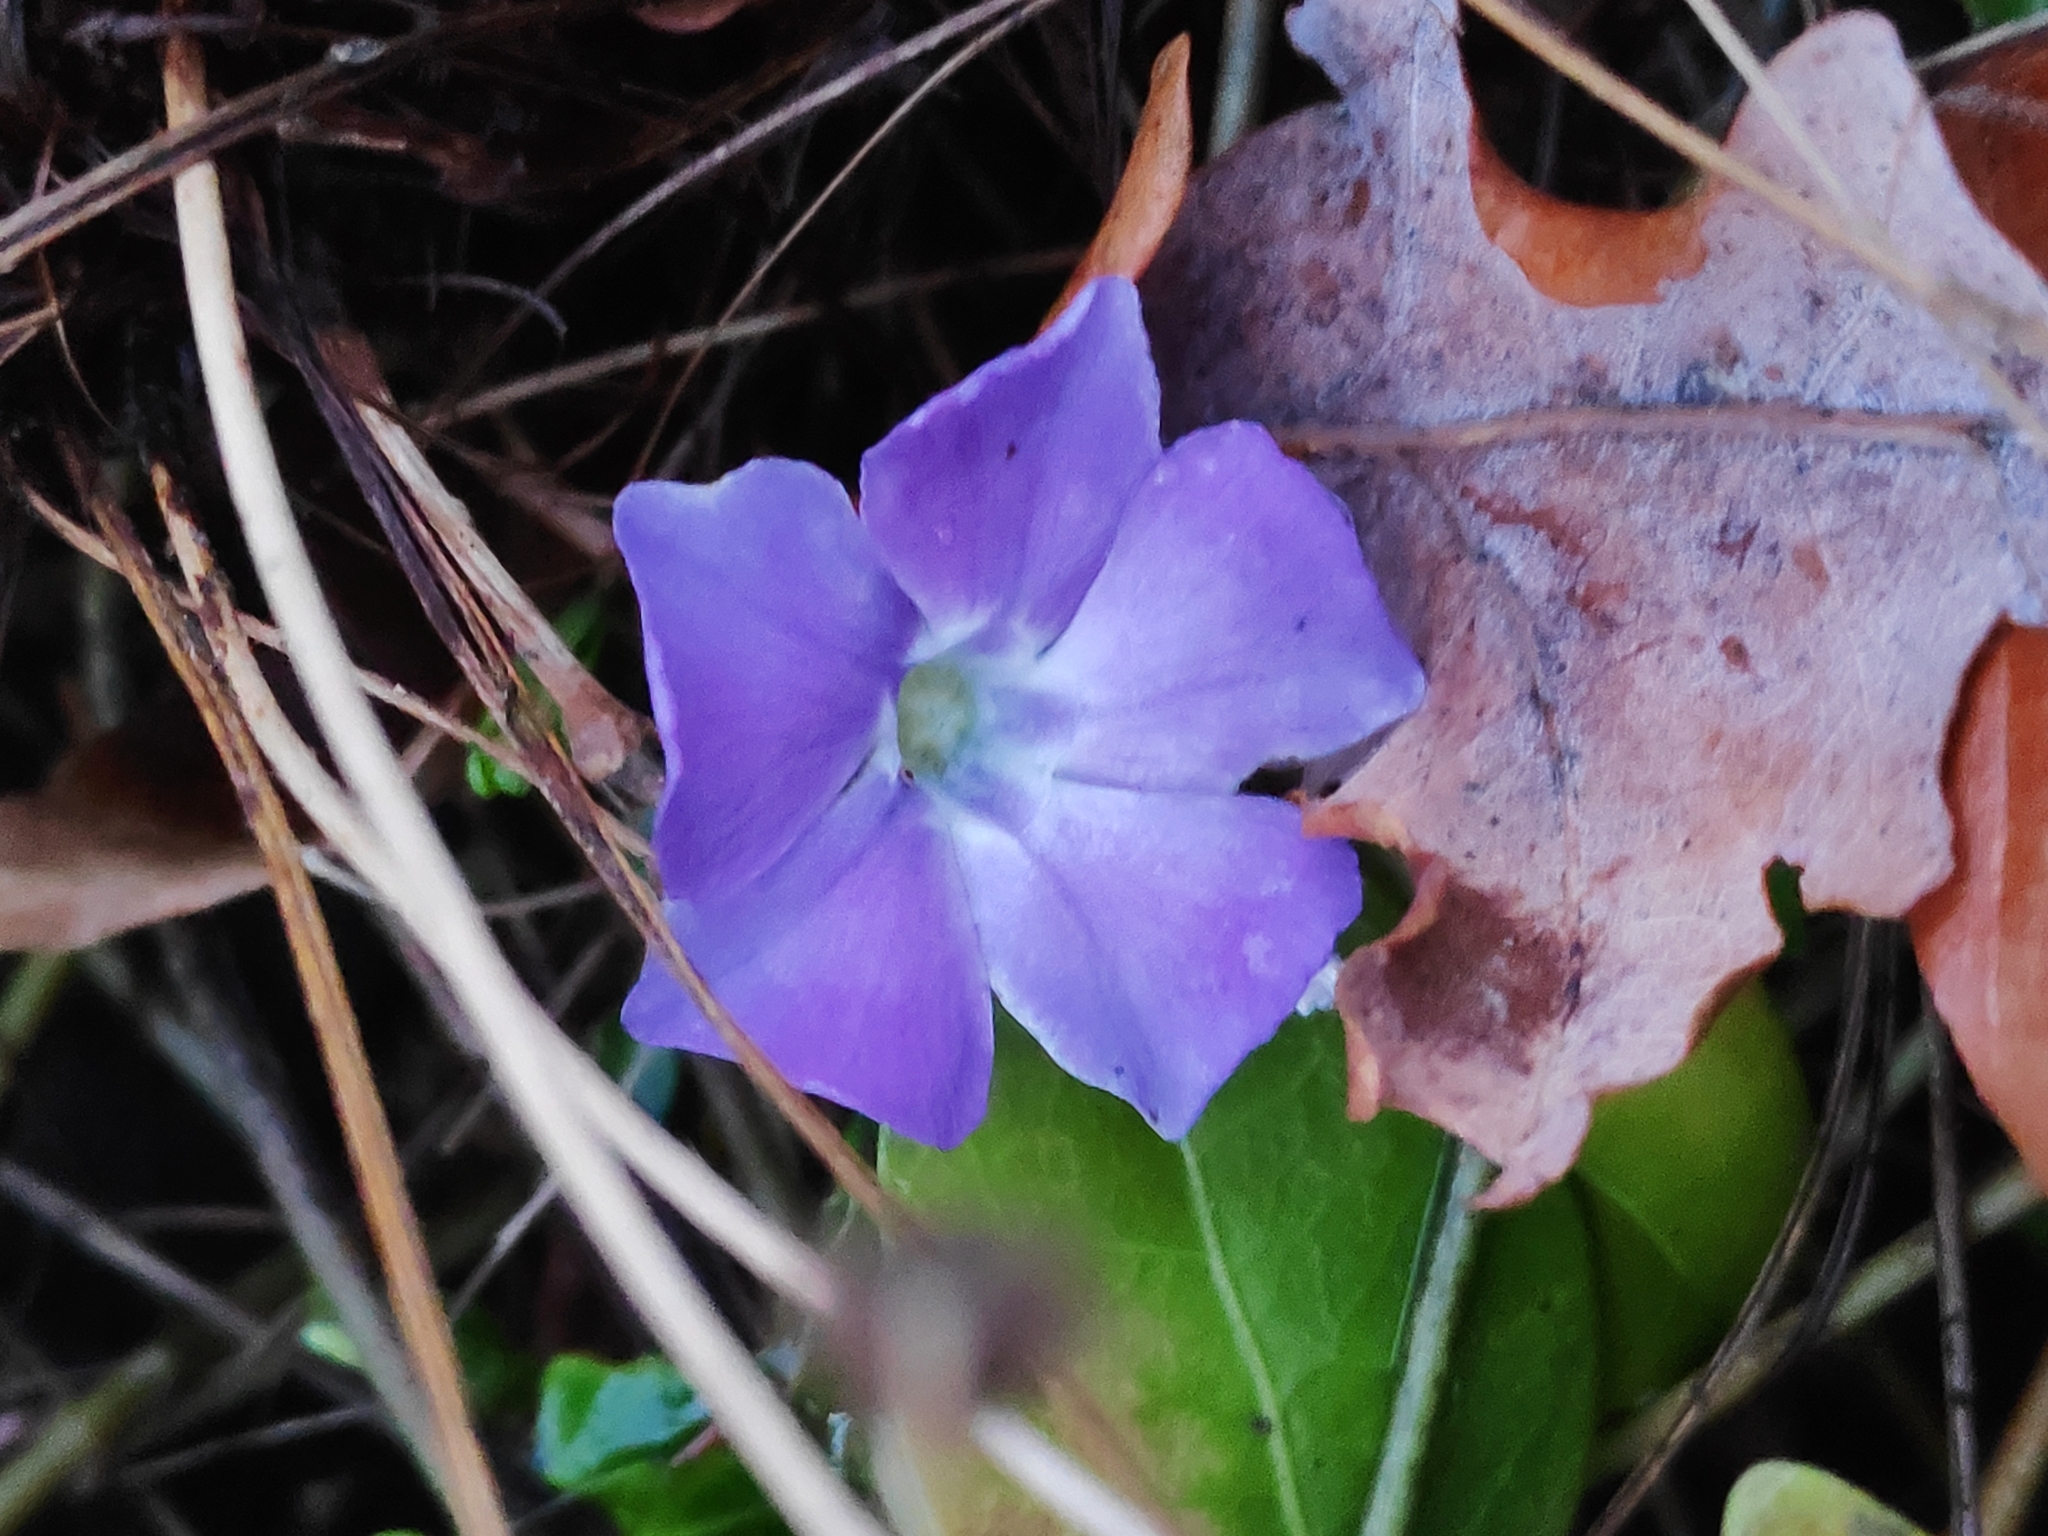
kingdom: Plantae
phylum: Tracheophyta
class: Magnoliopsida
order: Gentianales
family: Apocynaceae
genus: Vinca
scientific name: Vinca minor
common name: Lesser periwinkle
